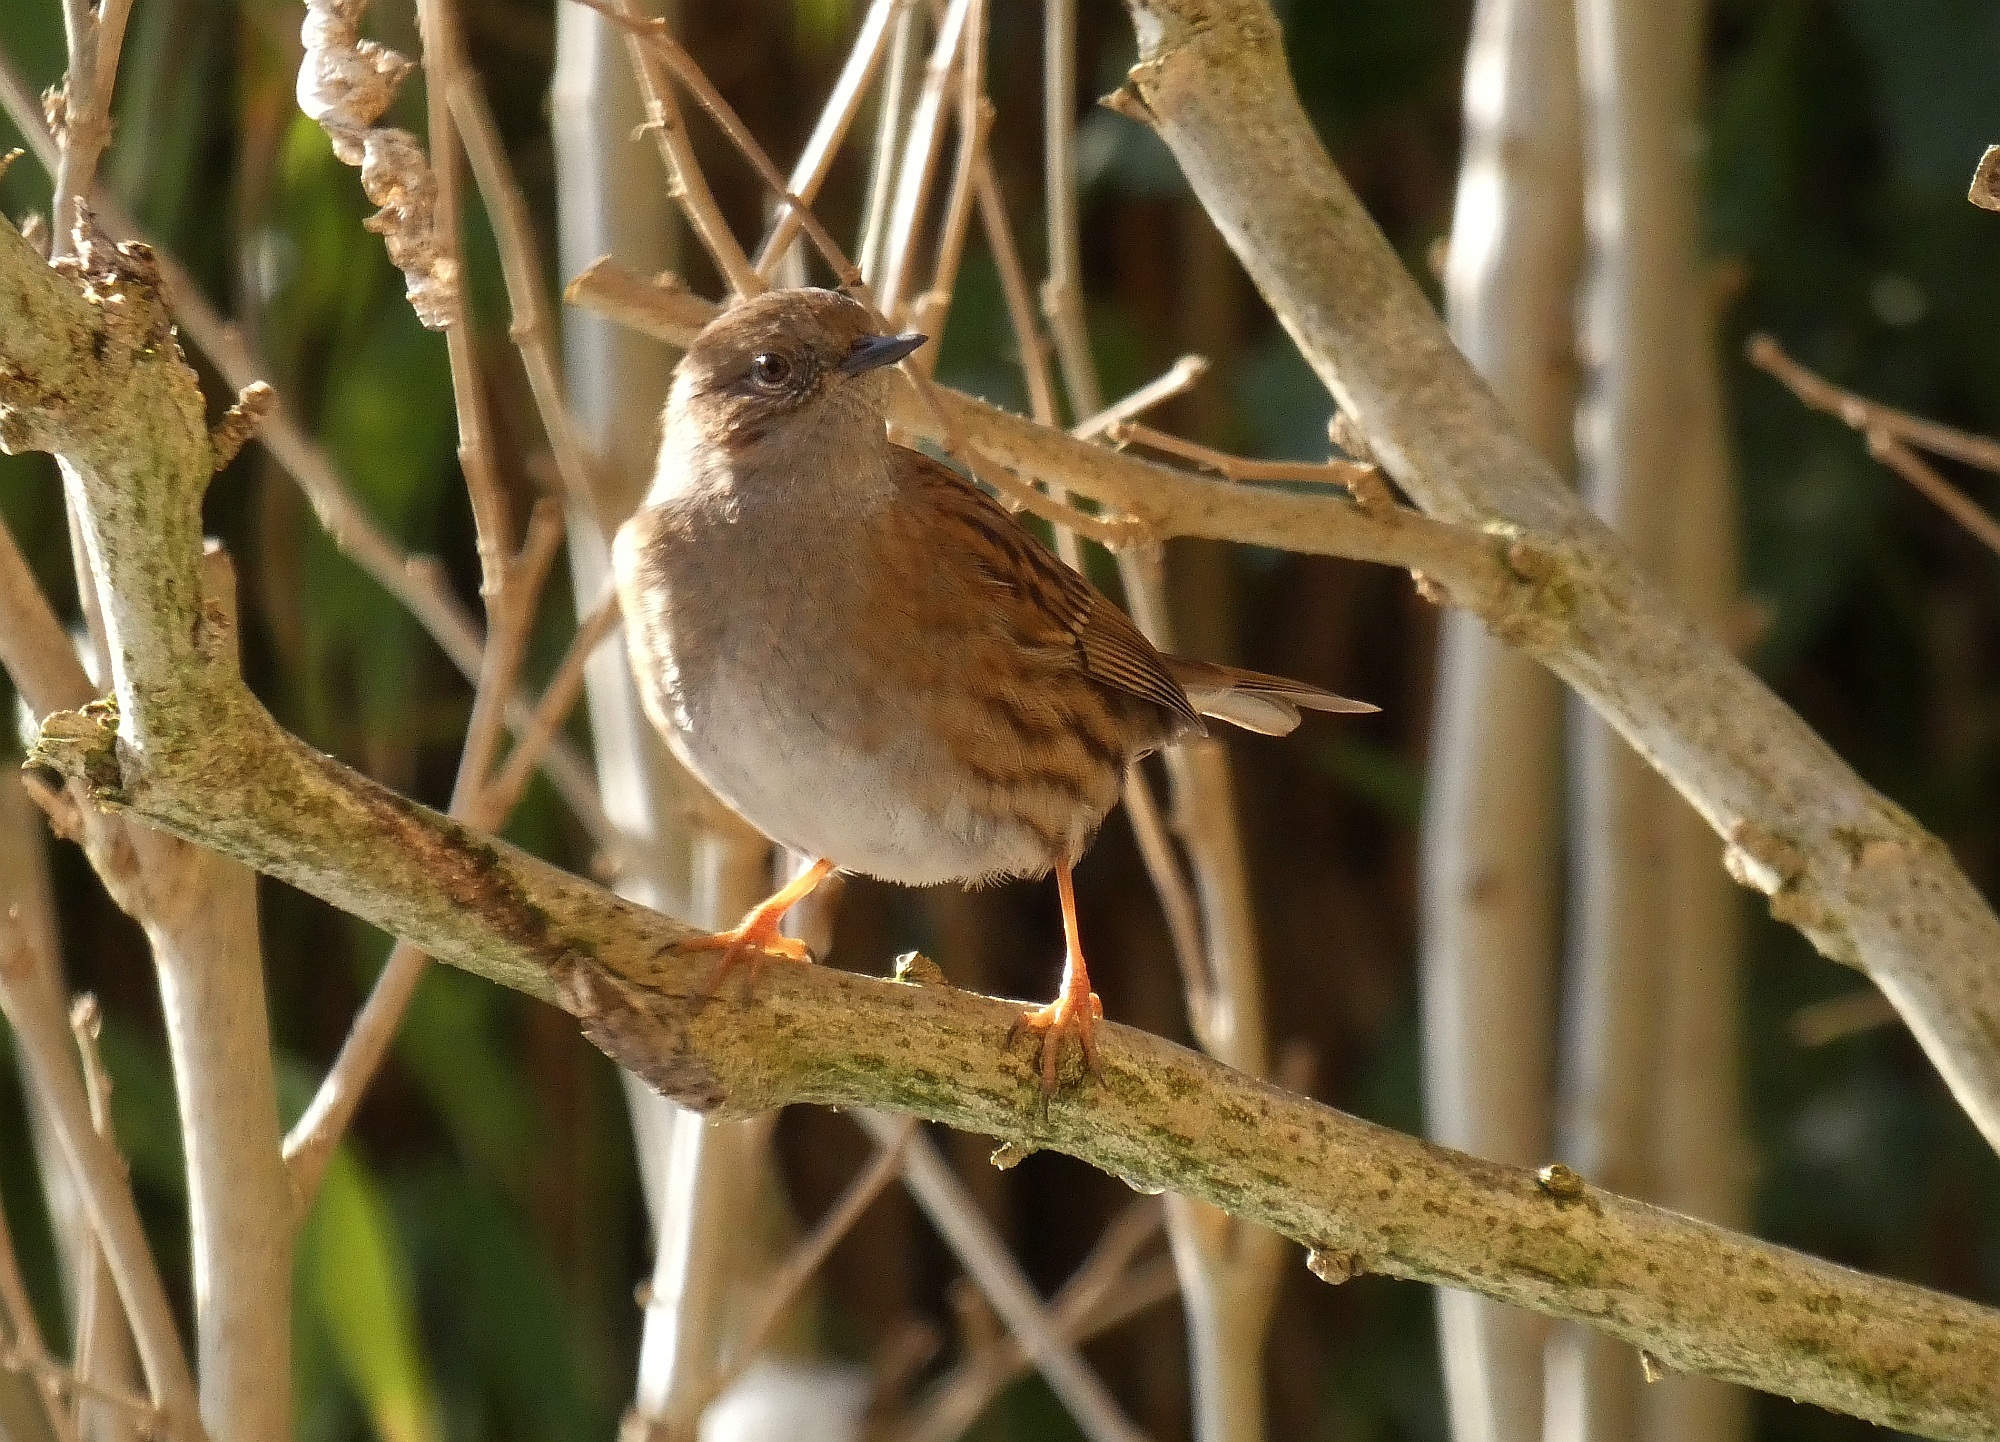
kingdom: Animalia
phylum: Chordata
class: Aves
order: Passeriformes
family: Prunellidae
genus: Prunella
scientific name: Prunella modularis
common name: Dunnock
